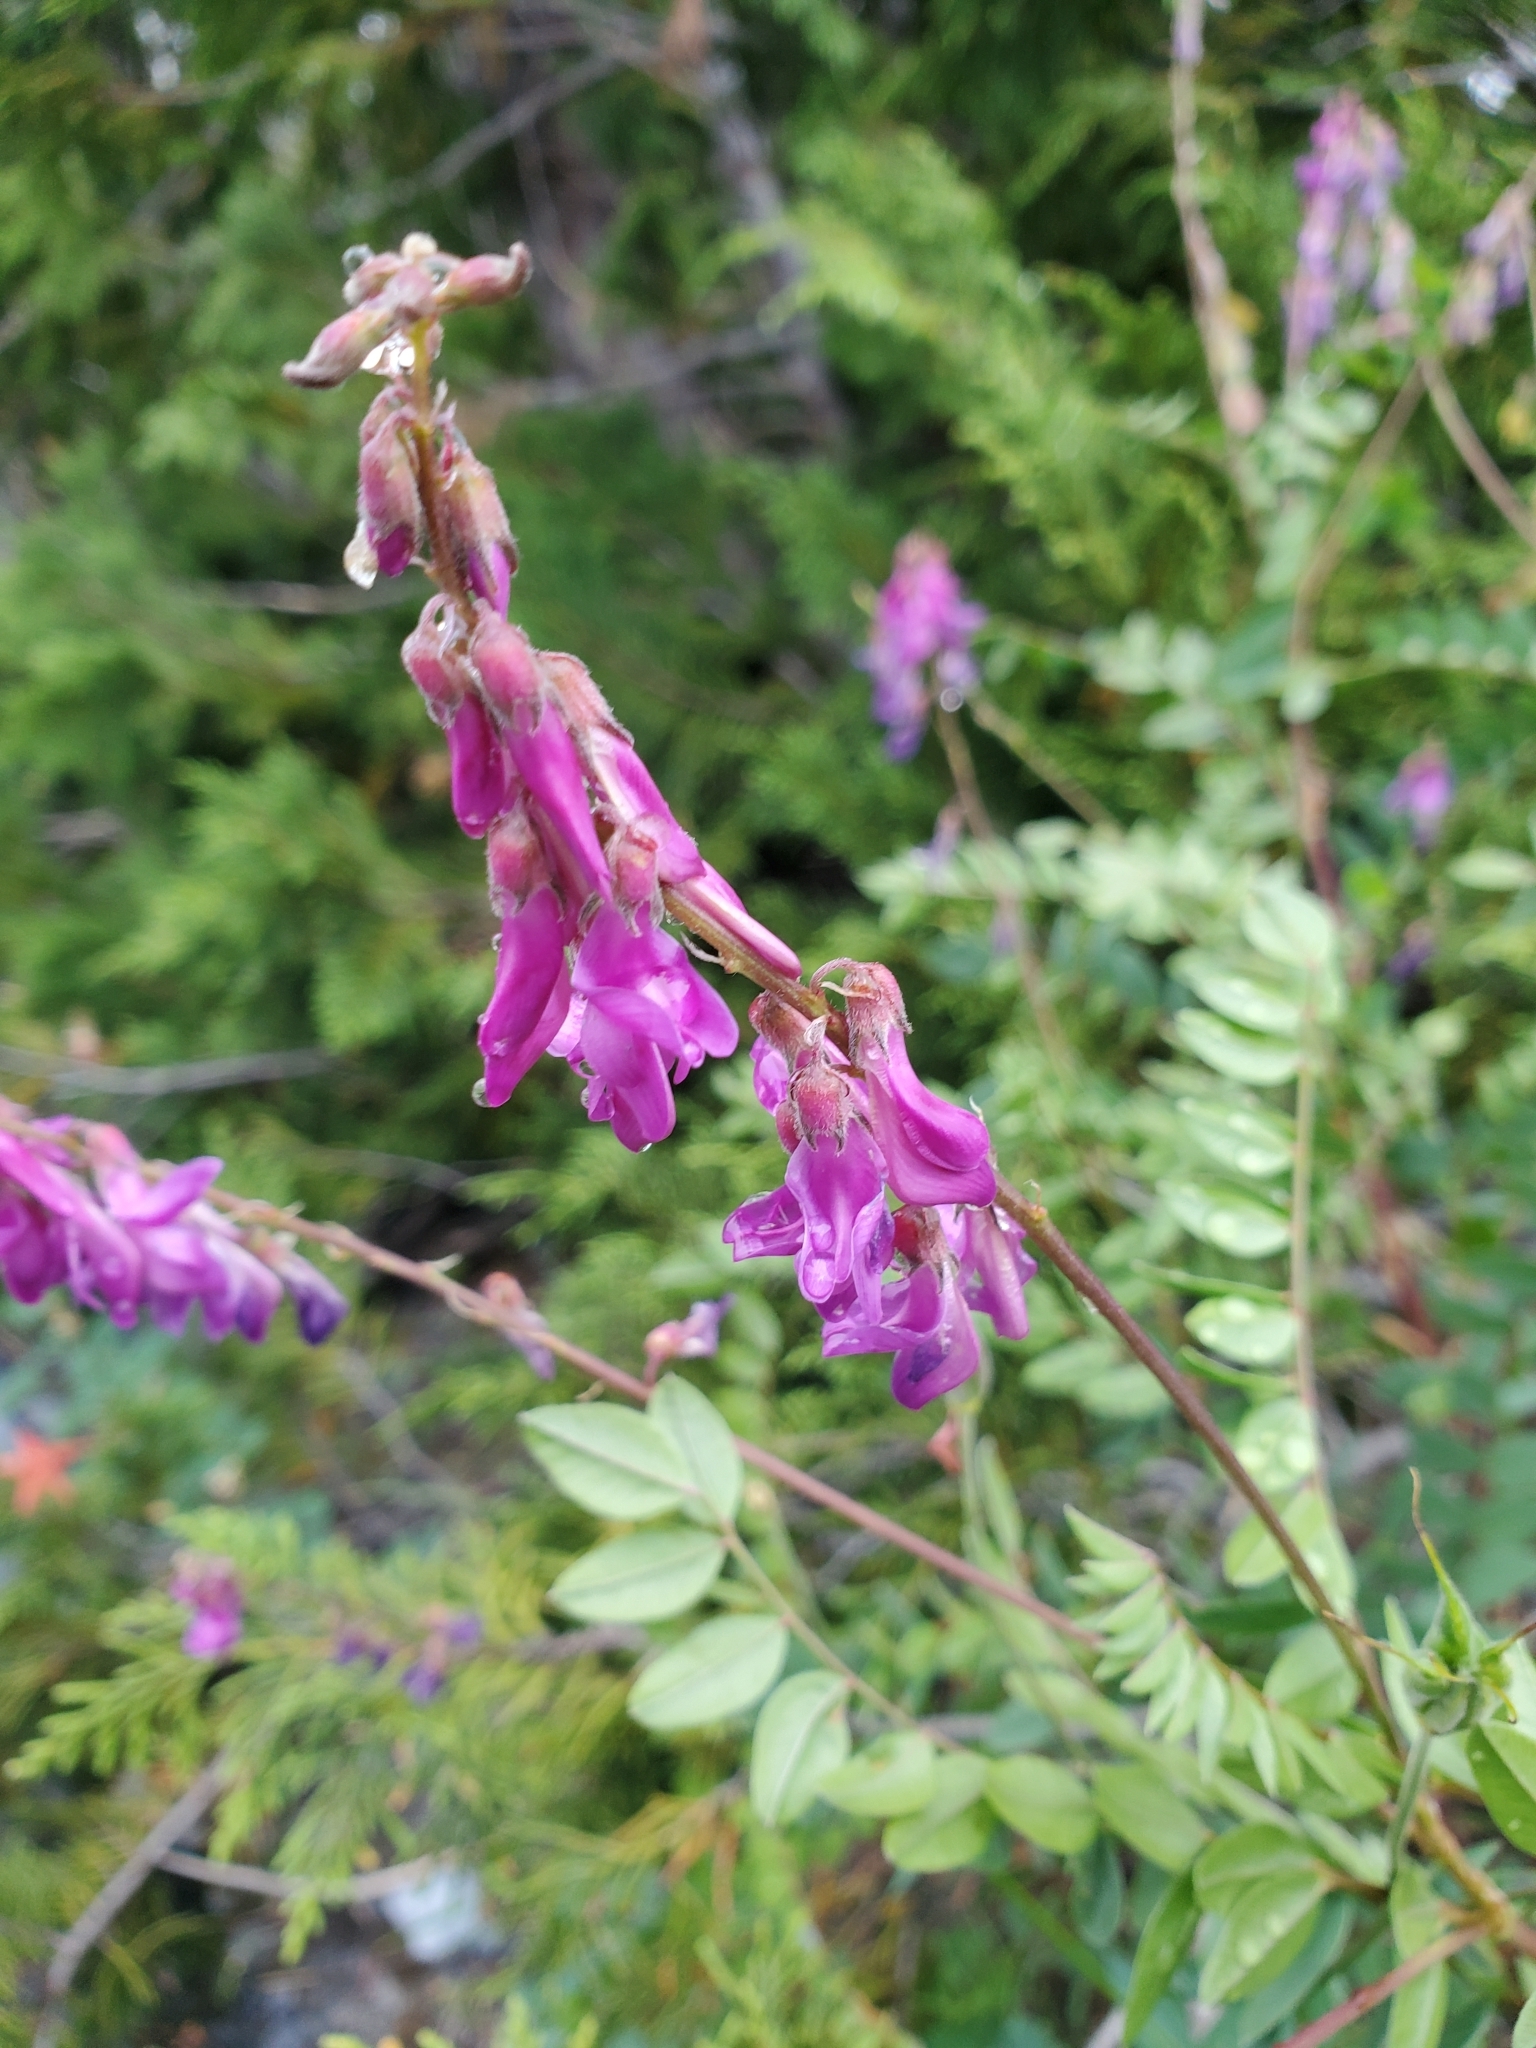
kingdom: Plantae
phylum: Tracheophyta
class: Magnoliopsida
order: Fabales
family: Fabaceae
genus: Hedysarum
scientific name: Hedysarum occidentale
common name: Western hedysarum
